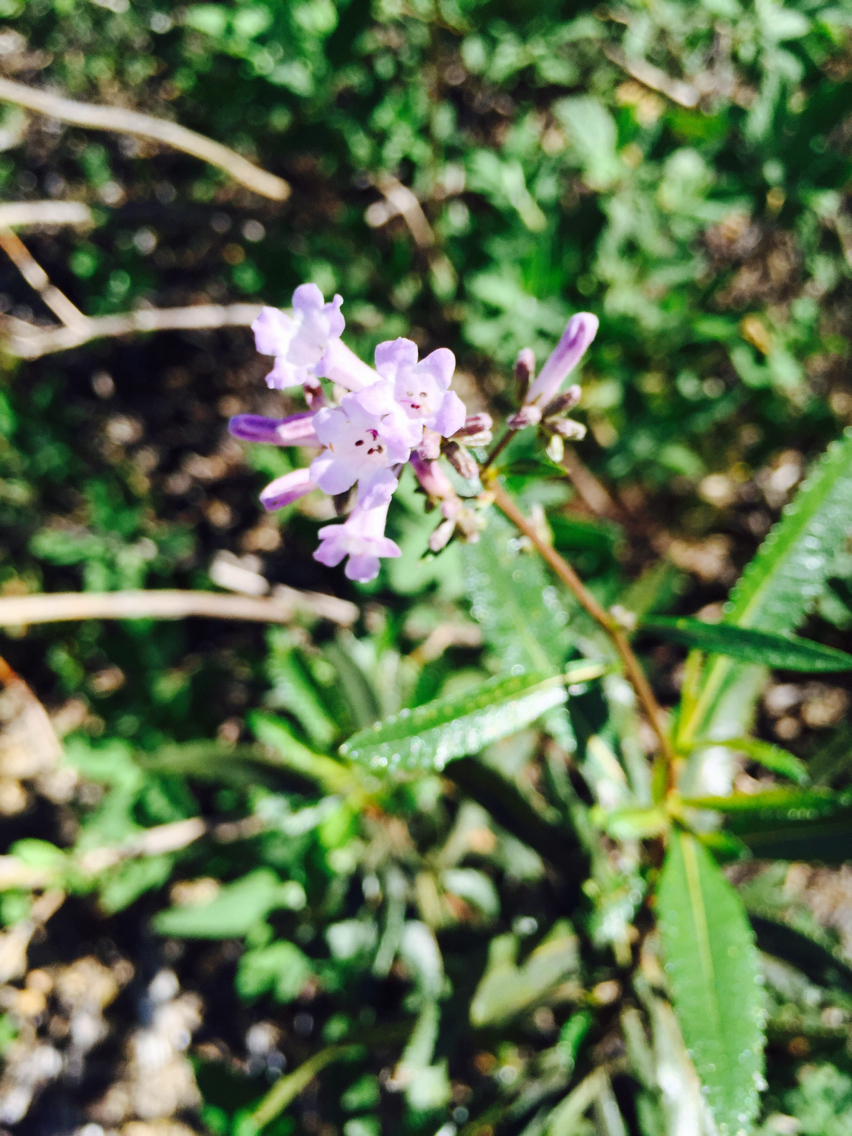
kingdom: Plantae
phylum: Tracheophyta
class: Magnoliopsida
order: Boraginales
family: Namaceae
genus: Eriodictyon
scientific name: Eriodictyon californicum
